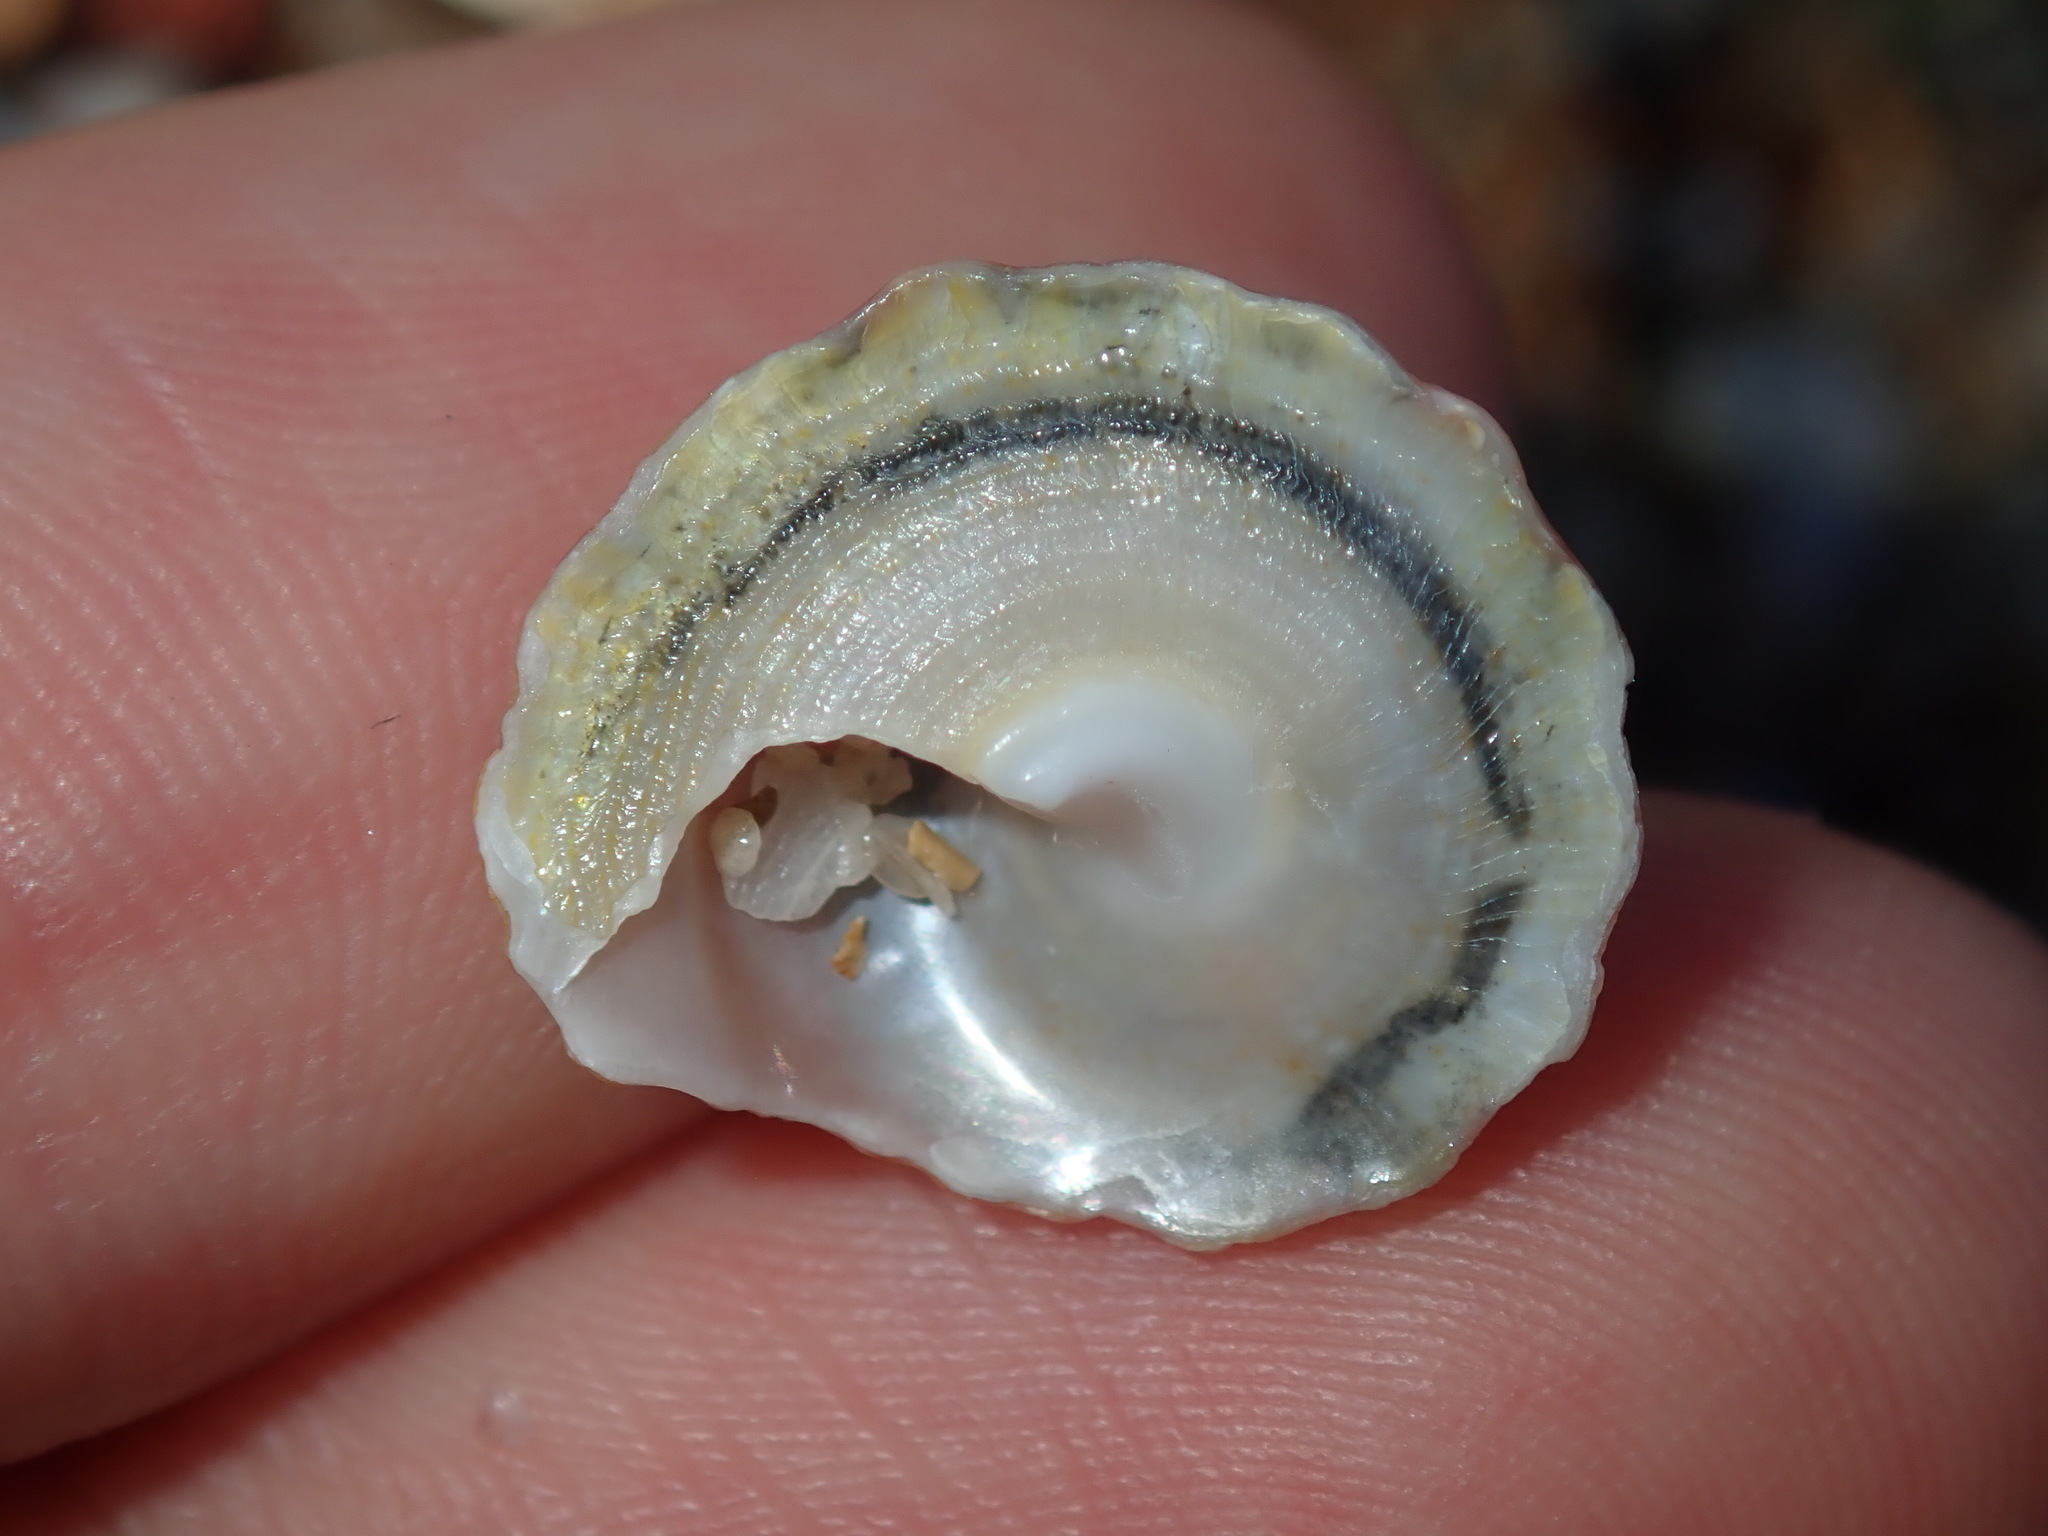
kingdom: Animalia
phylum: Mollusca
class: Gastropoda
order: Trochida
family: Turbinidae
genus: Bellastraea
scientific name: Bellastraea squamifera
